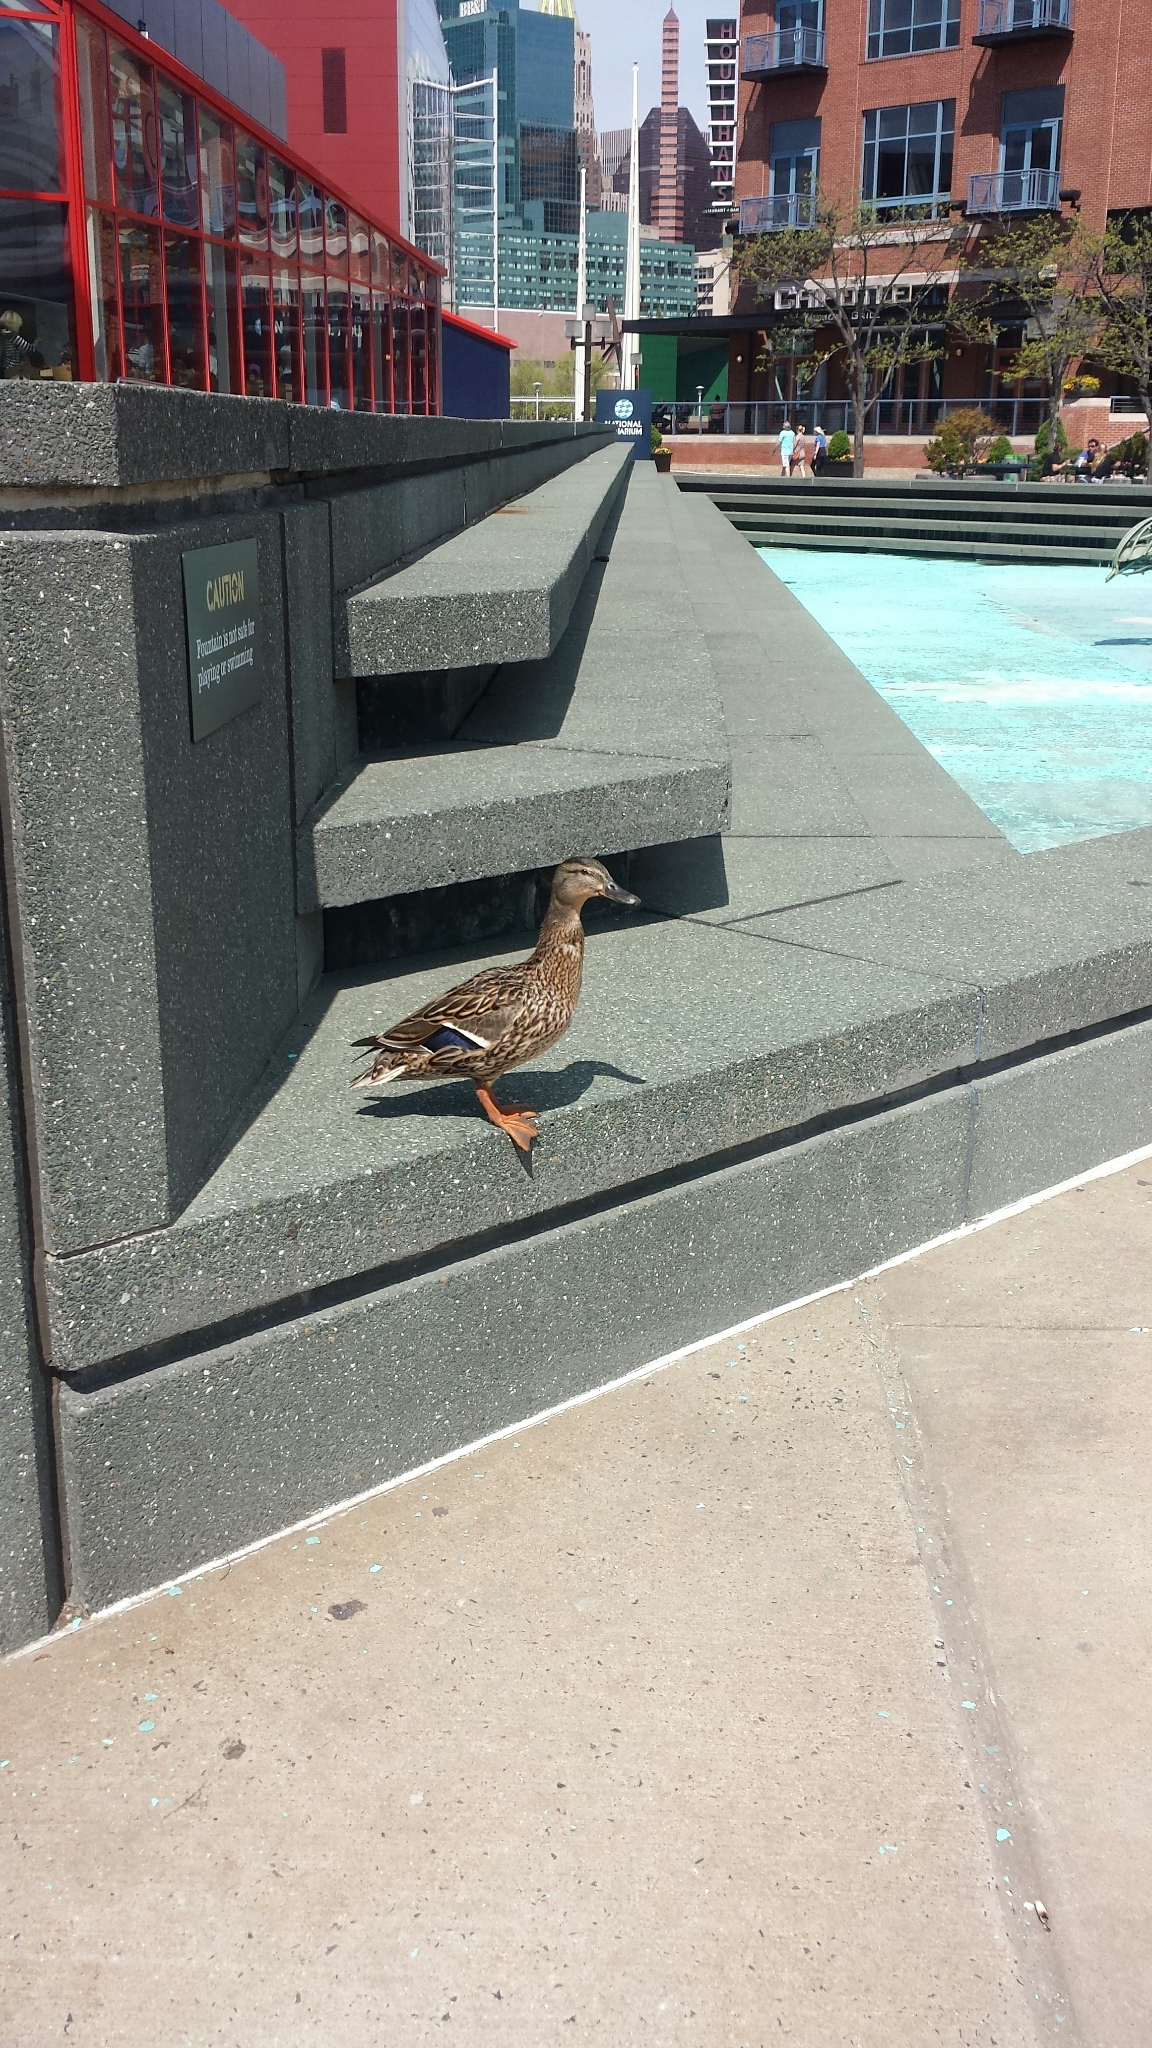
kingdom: Animalia
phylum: Chordata
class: Aves
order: Anseriformes
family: Anatidae
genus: Anas
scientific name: Anas platyrhynchos
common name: Mallard
